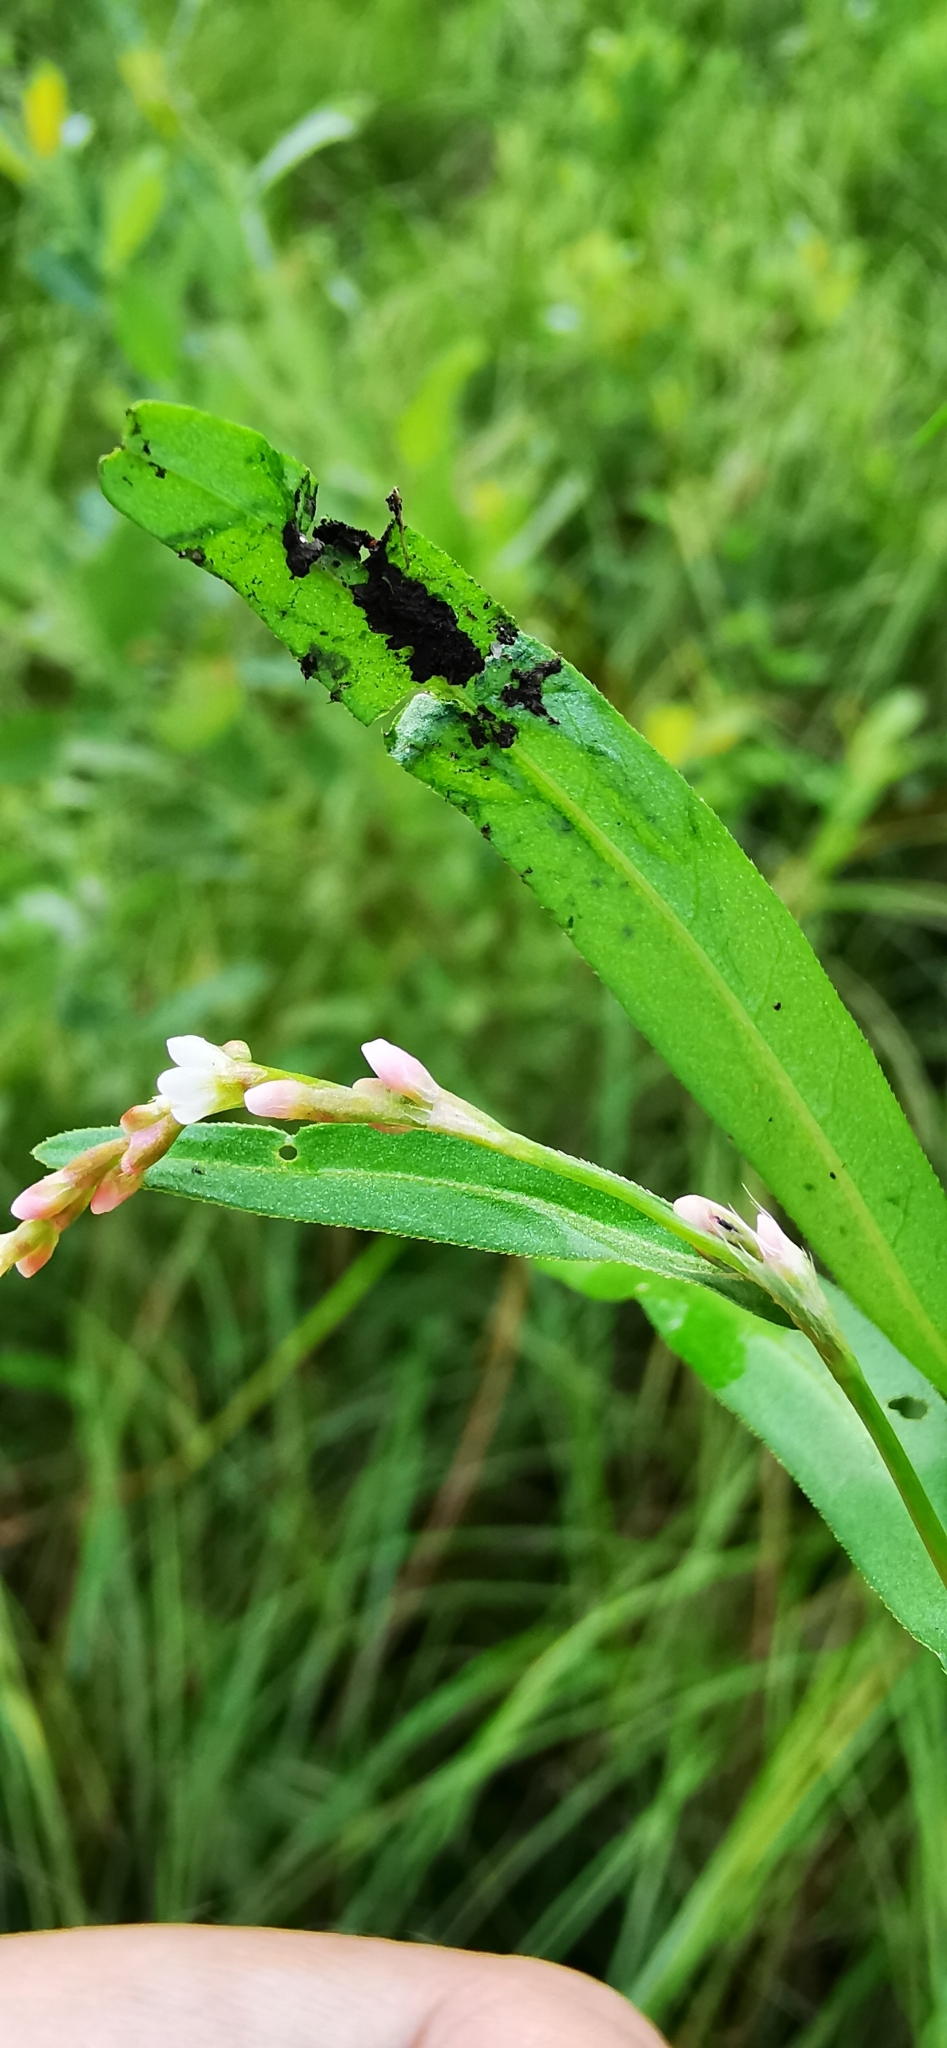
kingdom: Plantae
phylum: Tracheophyta
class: Magnoliopsida
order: Caryophyllales
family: Polygonaceae
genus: Persicaria
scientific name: Persicaria hydropiper
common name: Water-pepper
